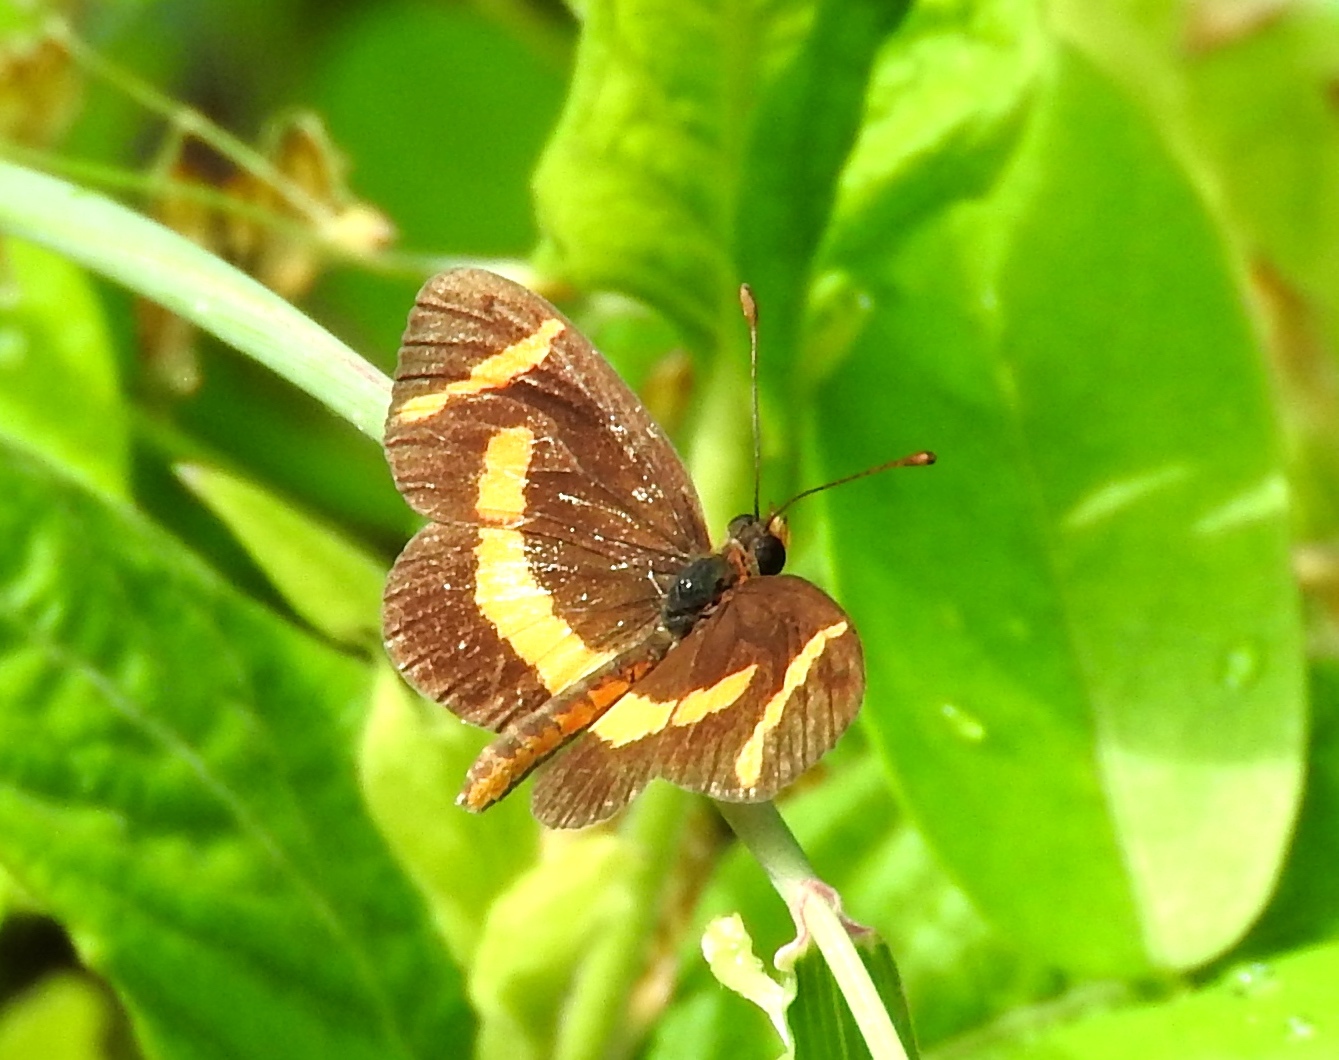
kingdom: Animalia
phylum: Arthropoda
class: Insecta
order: Lepidoptera
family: Nymphalidae
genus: Microtia
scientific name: Microtia elva
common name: Elf
